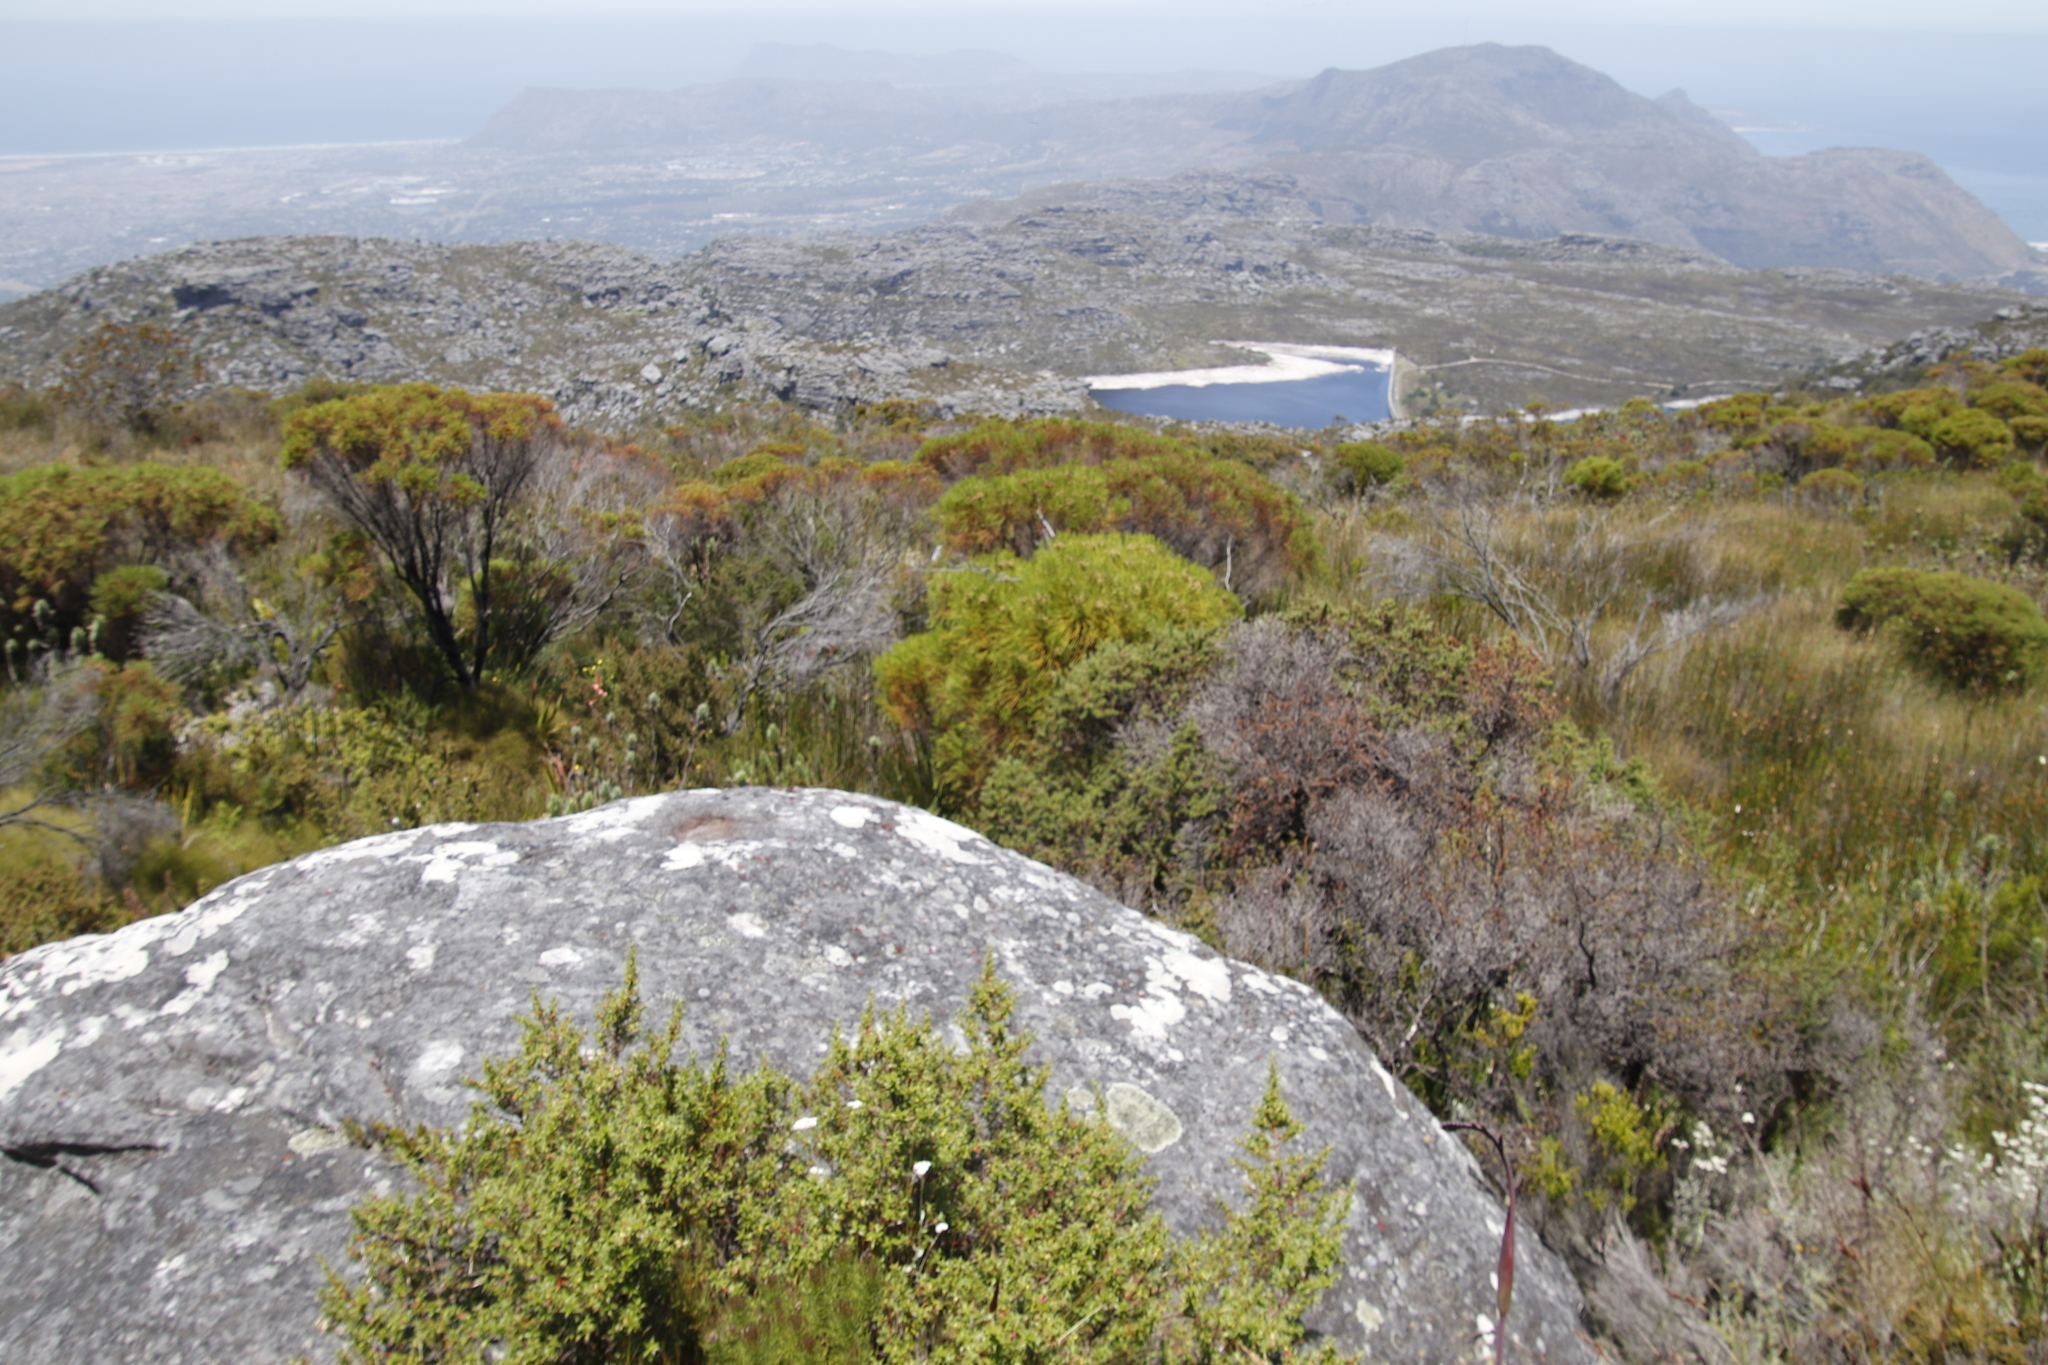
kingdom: Plantae
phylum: Tracheophyta
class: Magnoliopsida
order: Bruniales
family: Bruniaceae
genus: Berzelia
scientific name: Berzelia lanuginosa
